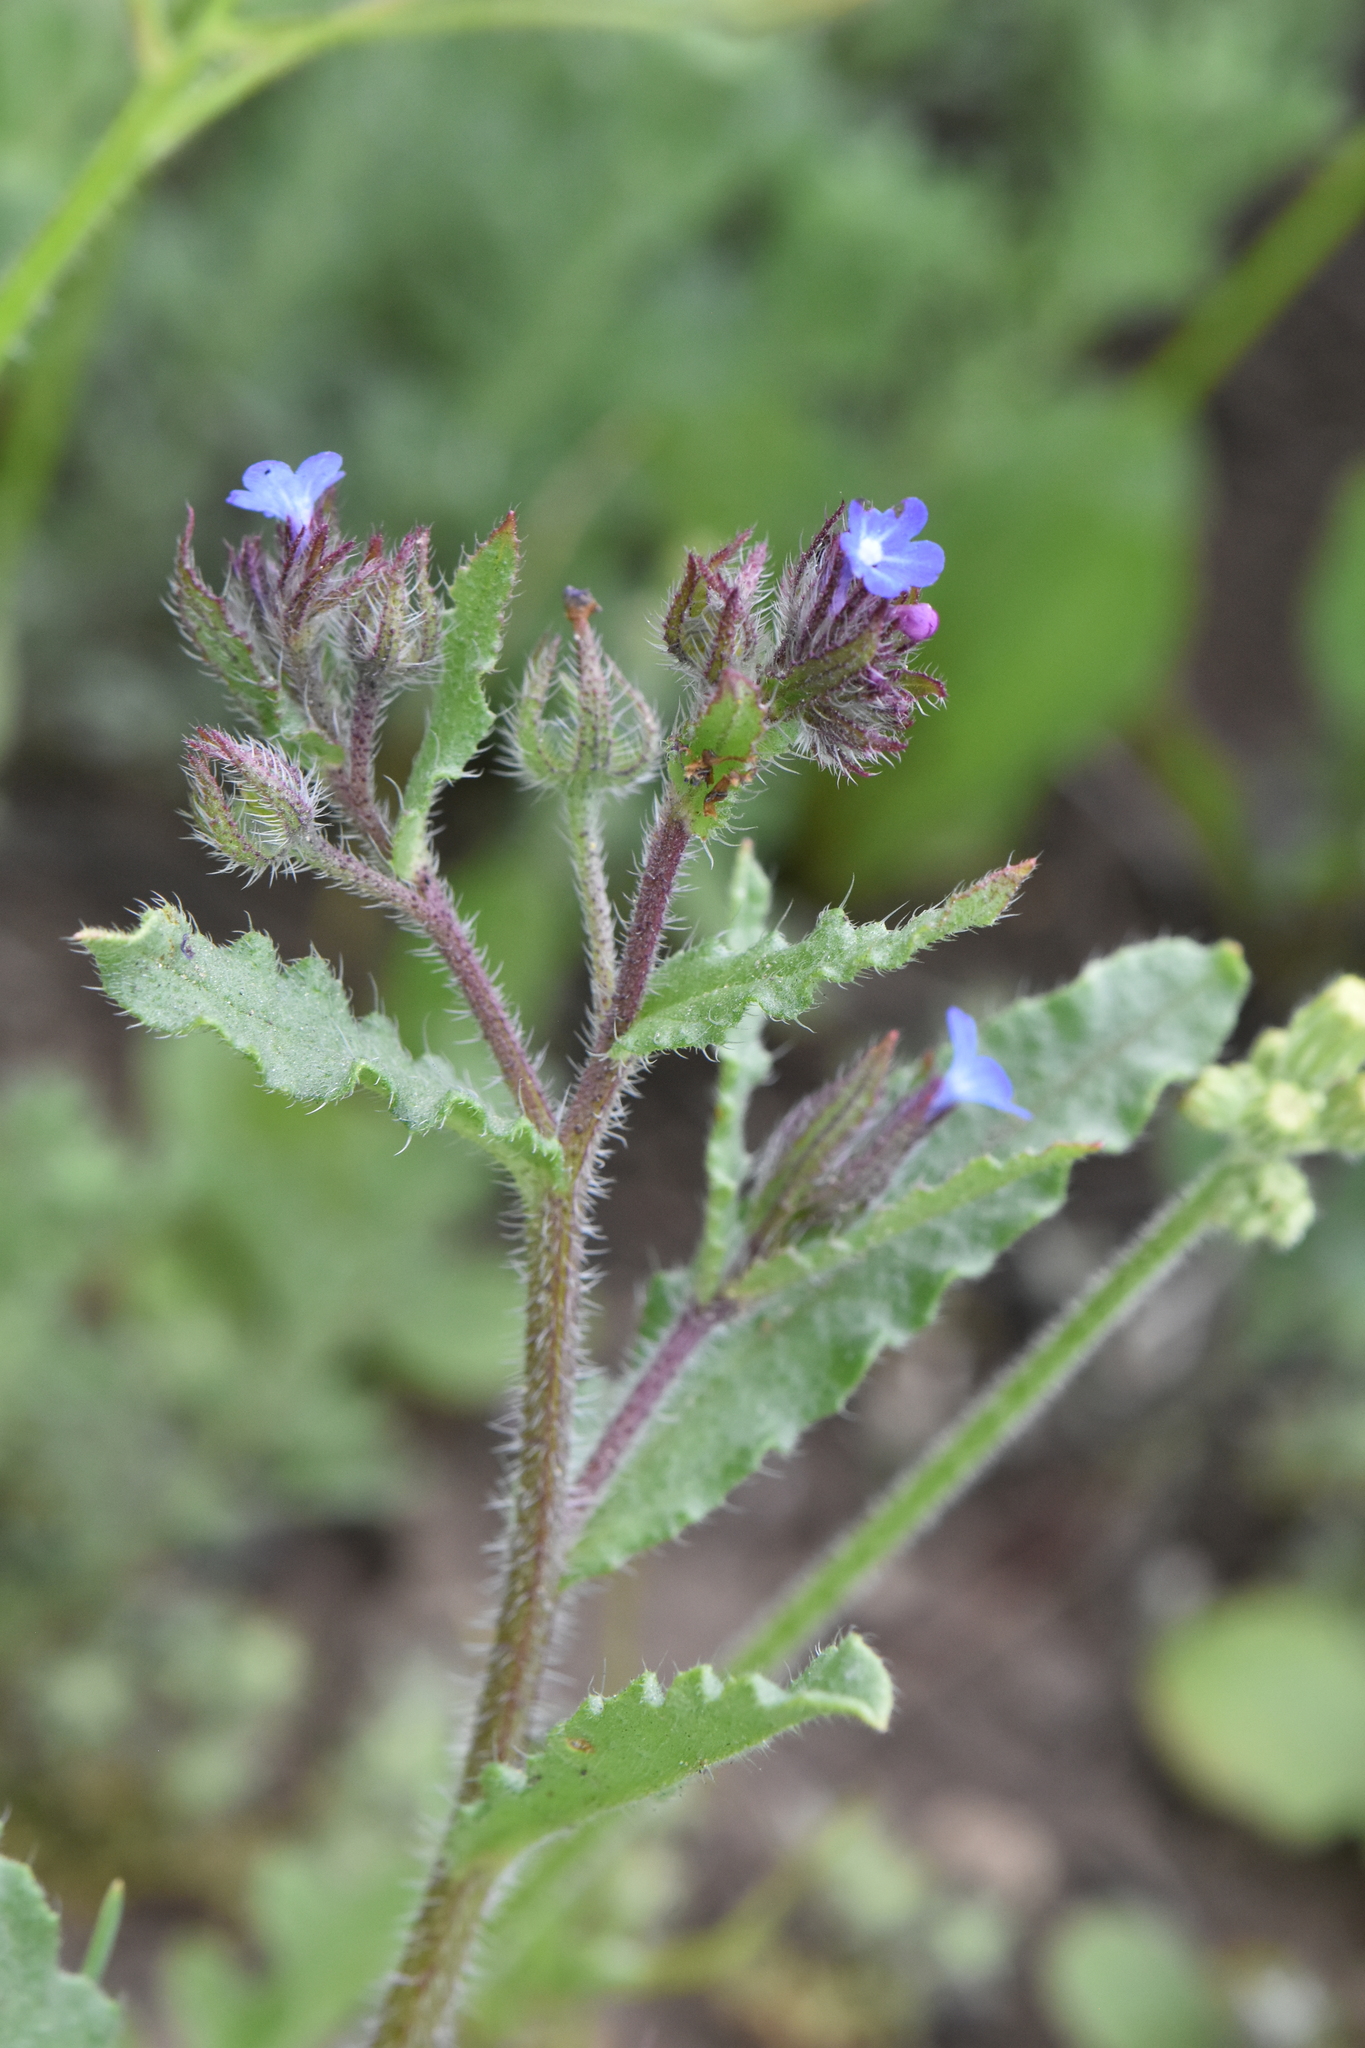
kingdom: Plantae
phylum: Tracheophyta
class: Magnoliopsida
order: Boraginales
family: Boraginaceae
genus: Lycopsis
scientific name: Lycopsis arvensis
